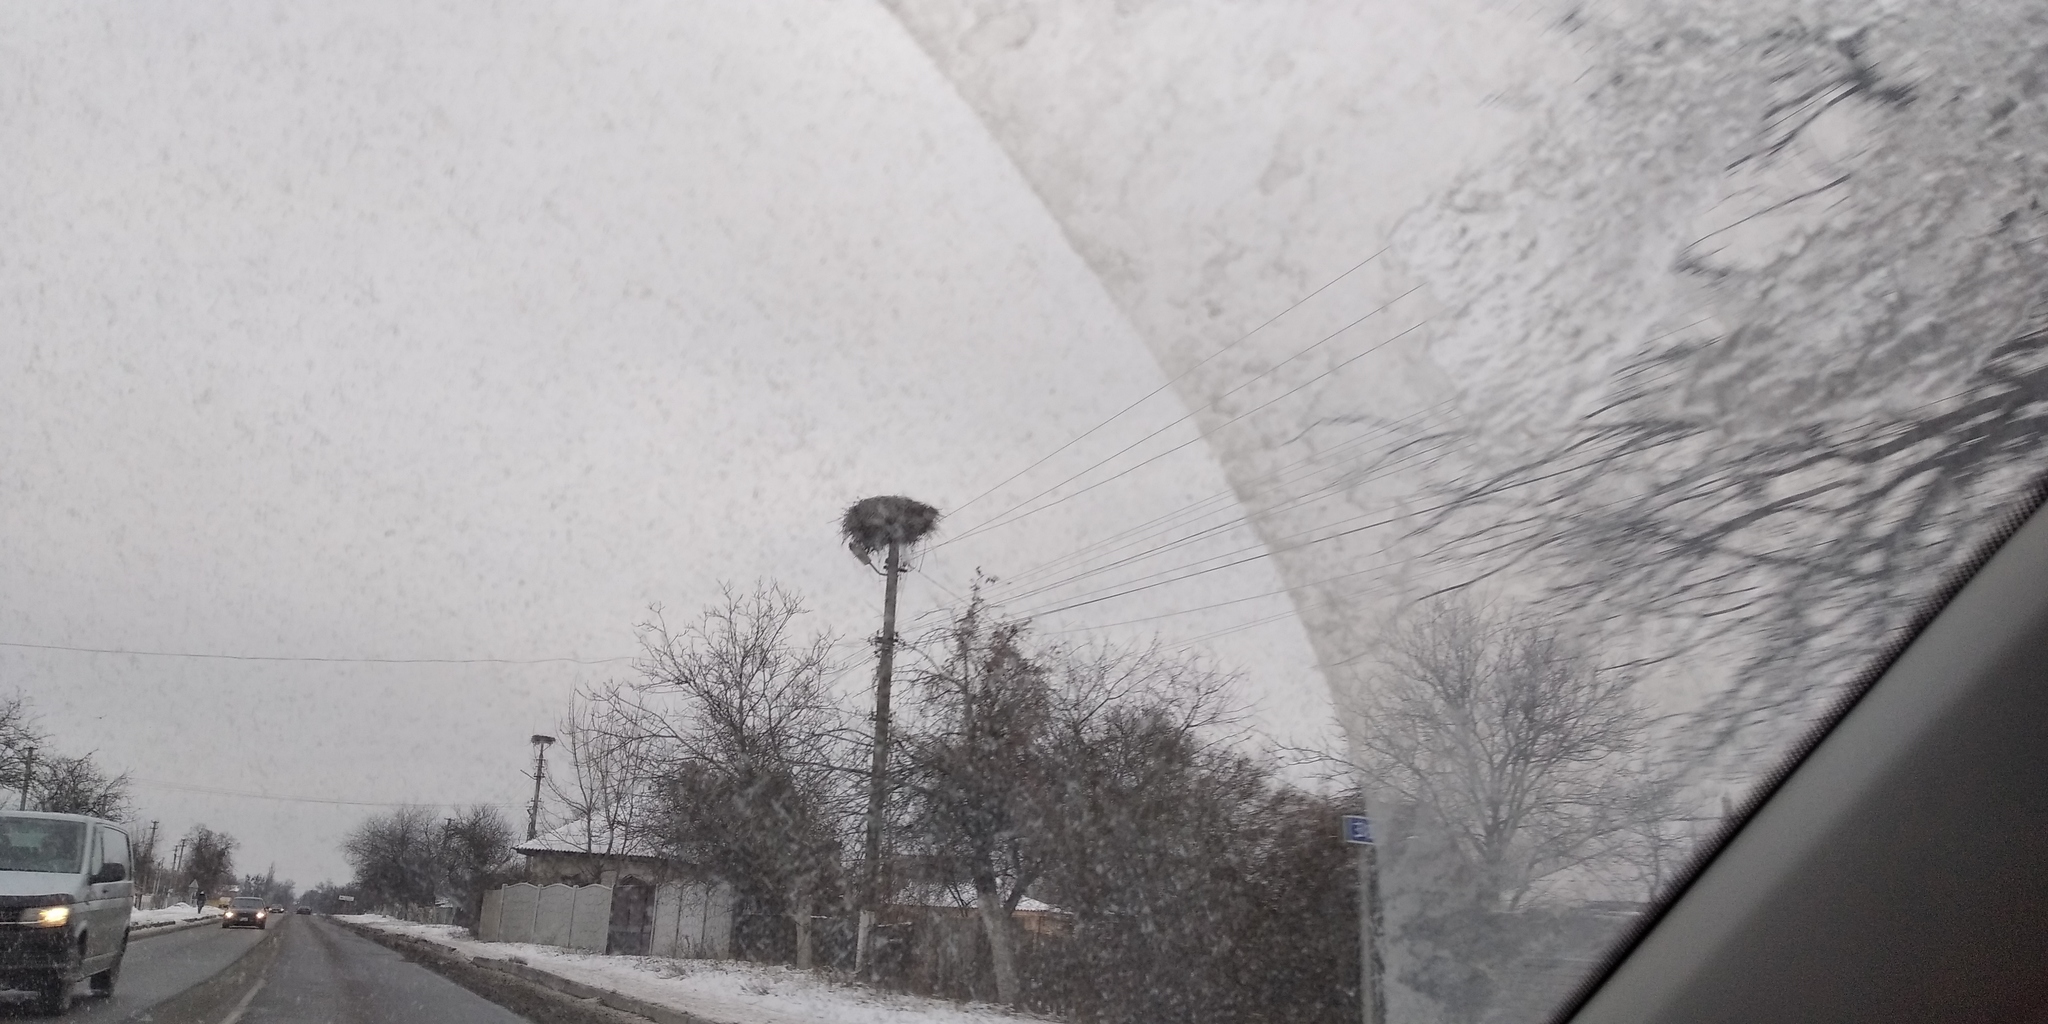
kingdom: Animalia
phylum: Chordata
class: Aves
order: Ciconiiformes
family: Ciconiidae
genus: Ciconia
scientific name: Ciconia ciconia
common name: White stork
